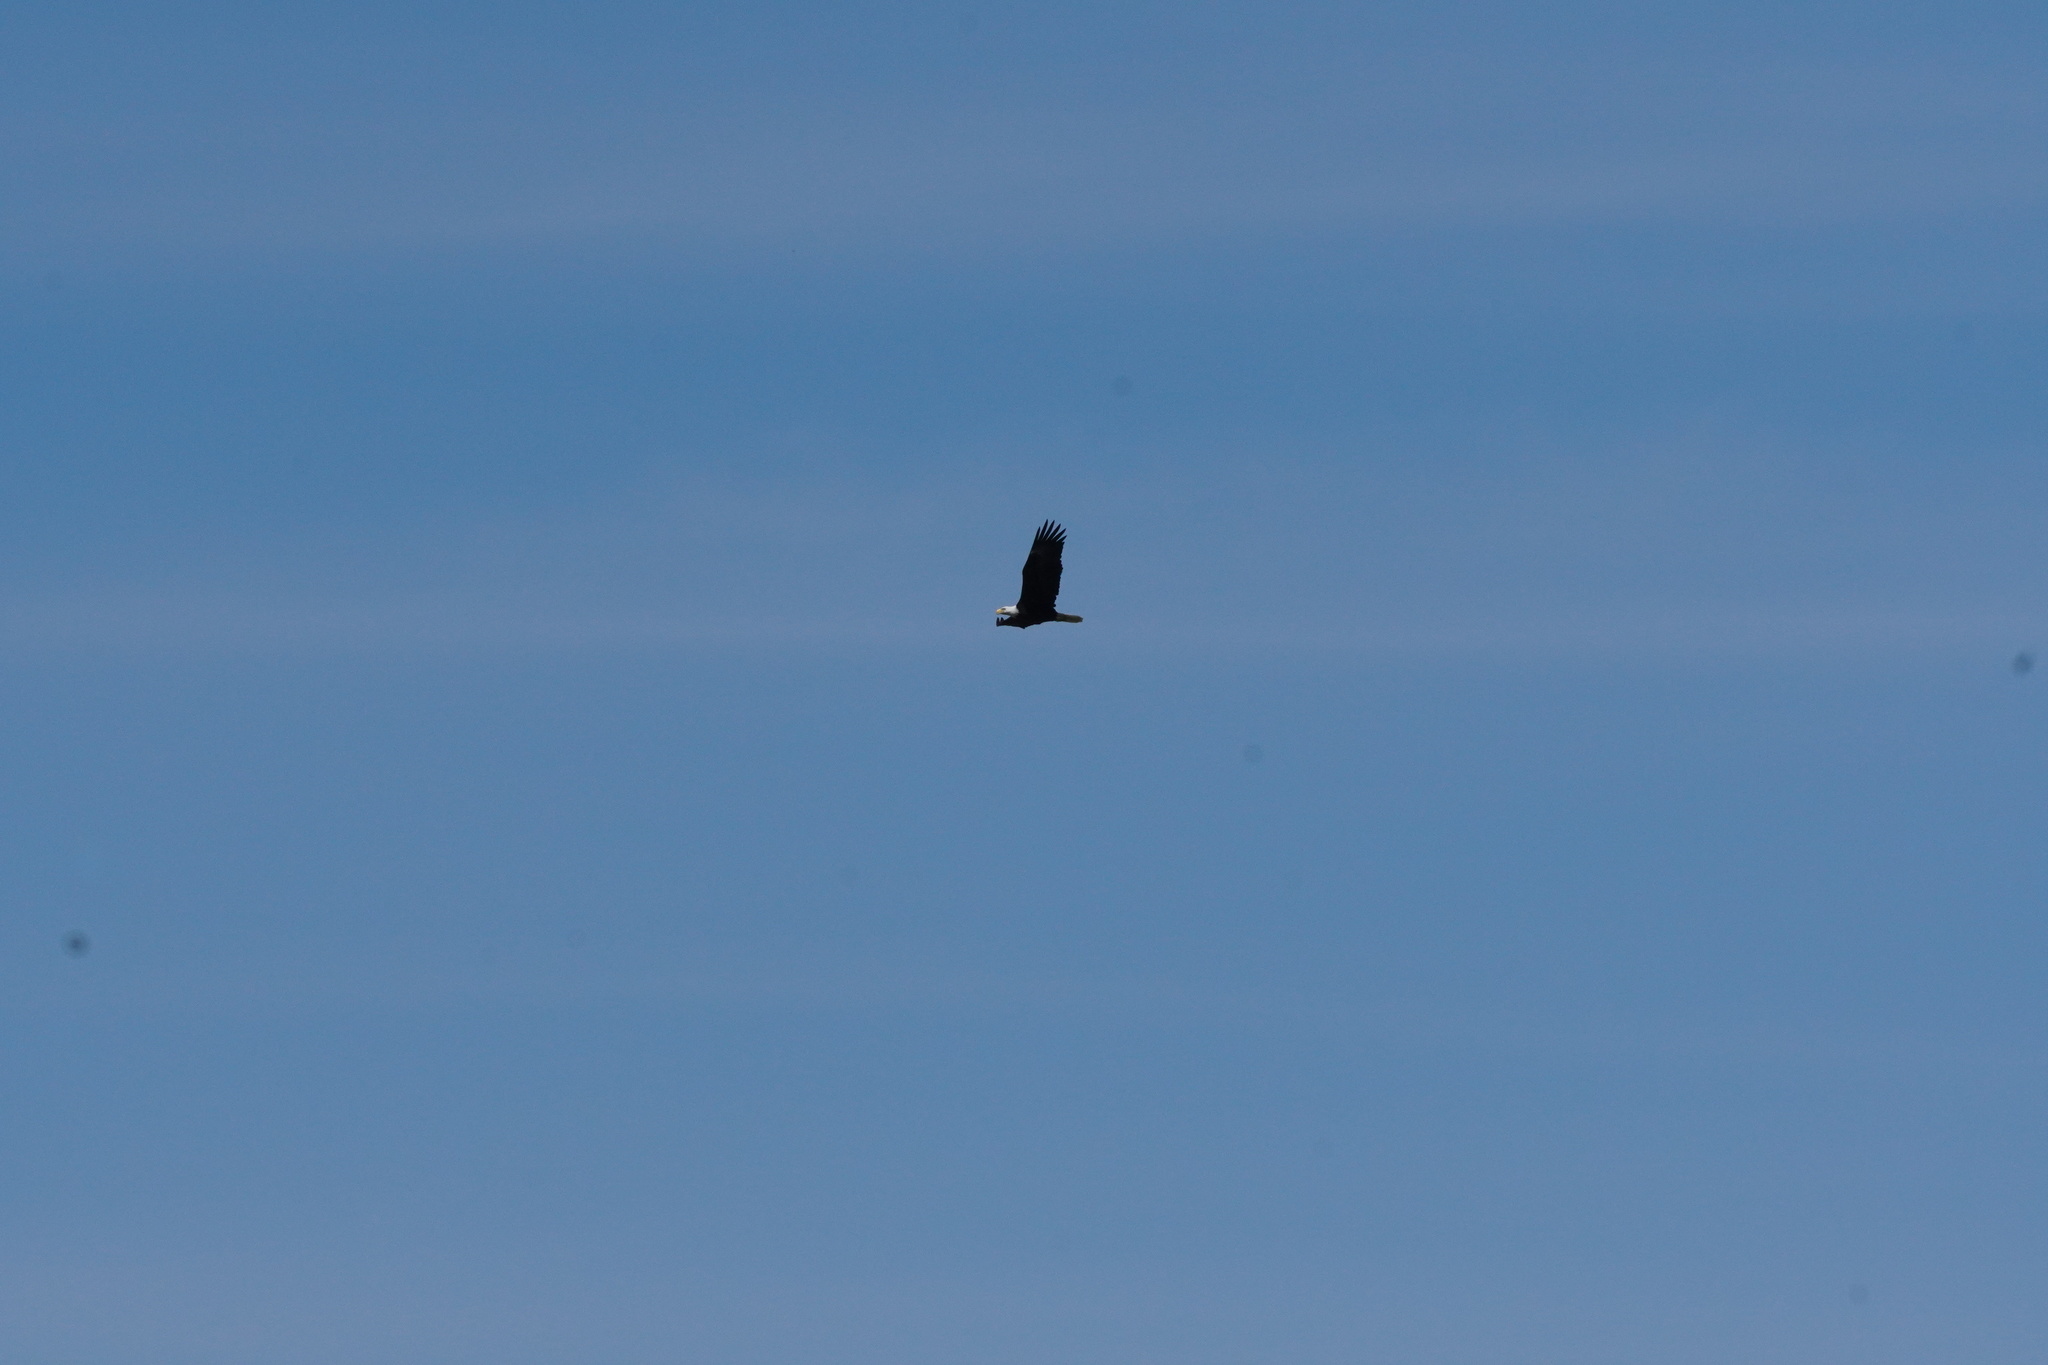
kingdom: Animalia
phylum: Chordata
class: Aves
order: Accipitriformes
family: Accipitridae
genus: Haliaeetus
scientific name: Haliaeetus leucocephalus
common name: Bald eagle
